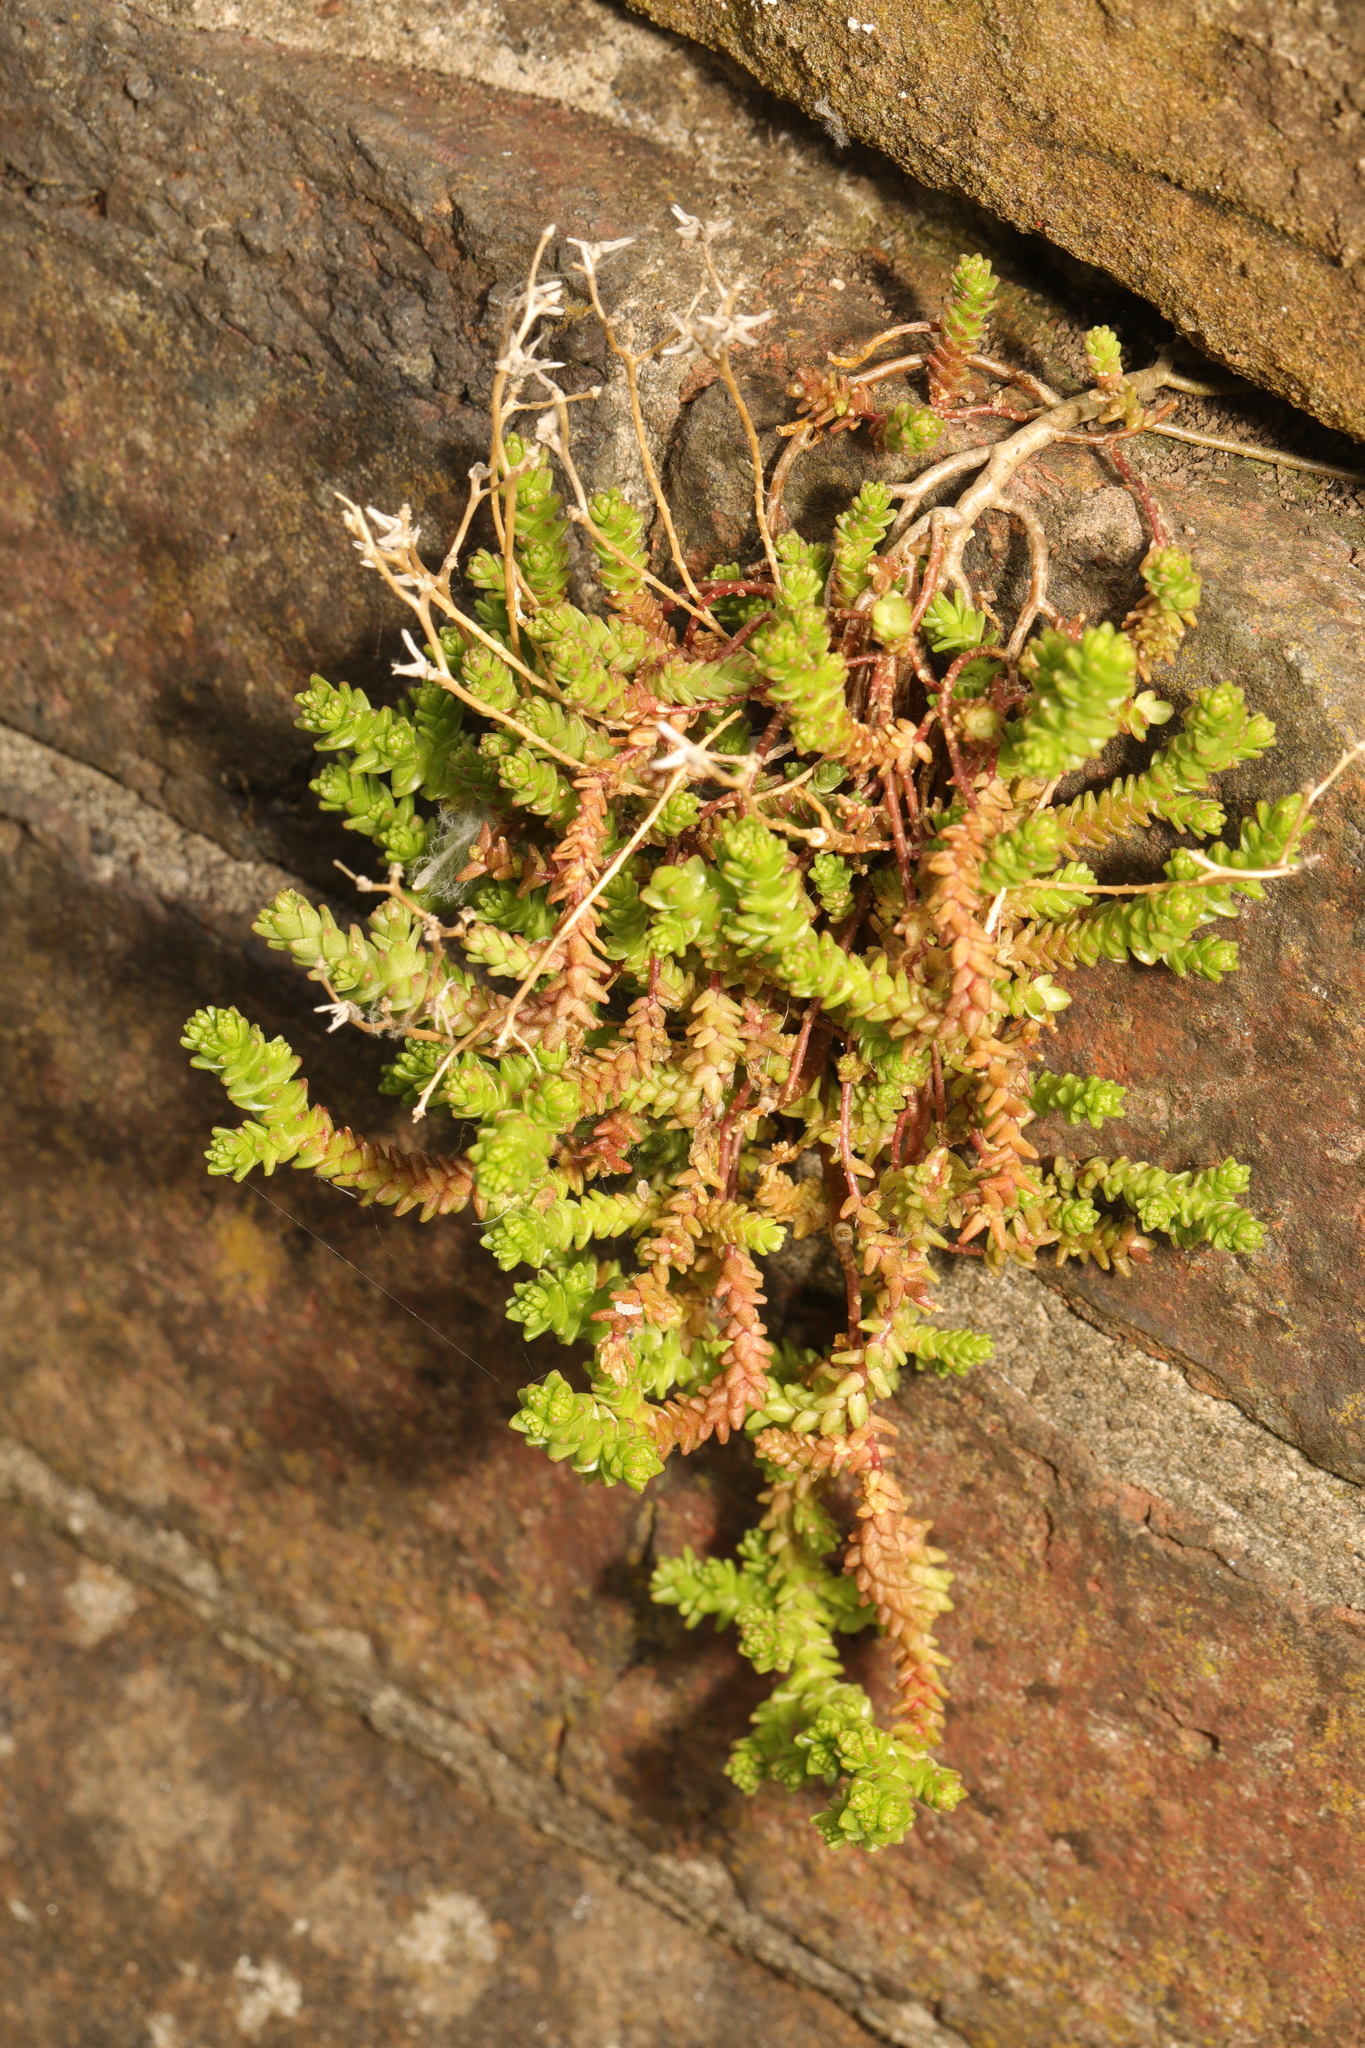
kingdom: Plantae
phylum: Tracheophyta
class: Magnoliopsida
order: Saxifragales
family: Crassulaceae
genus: Sedum
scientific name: Sedum acre
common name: Biting stonecrop
